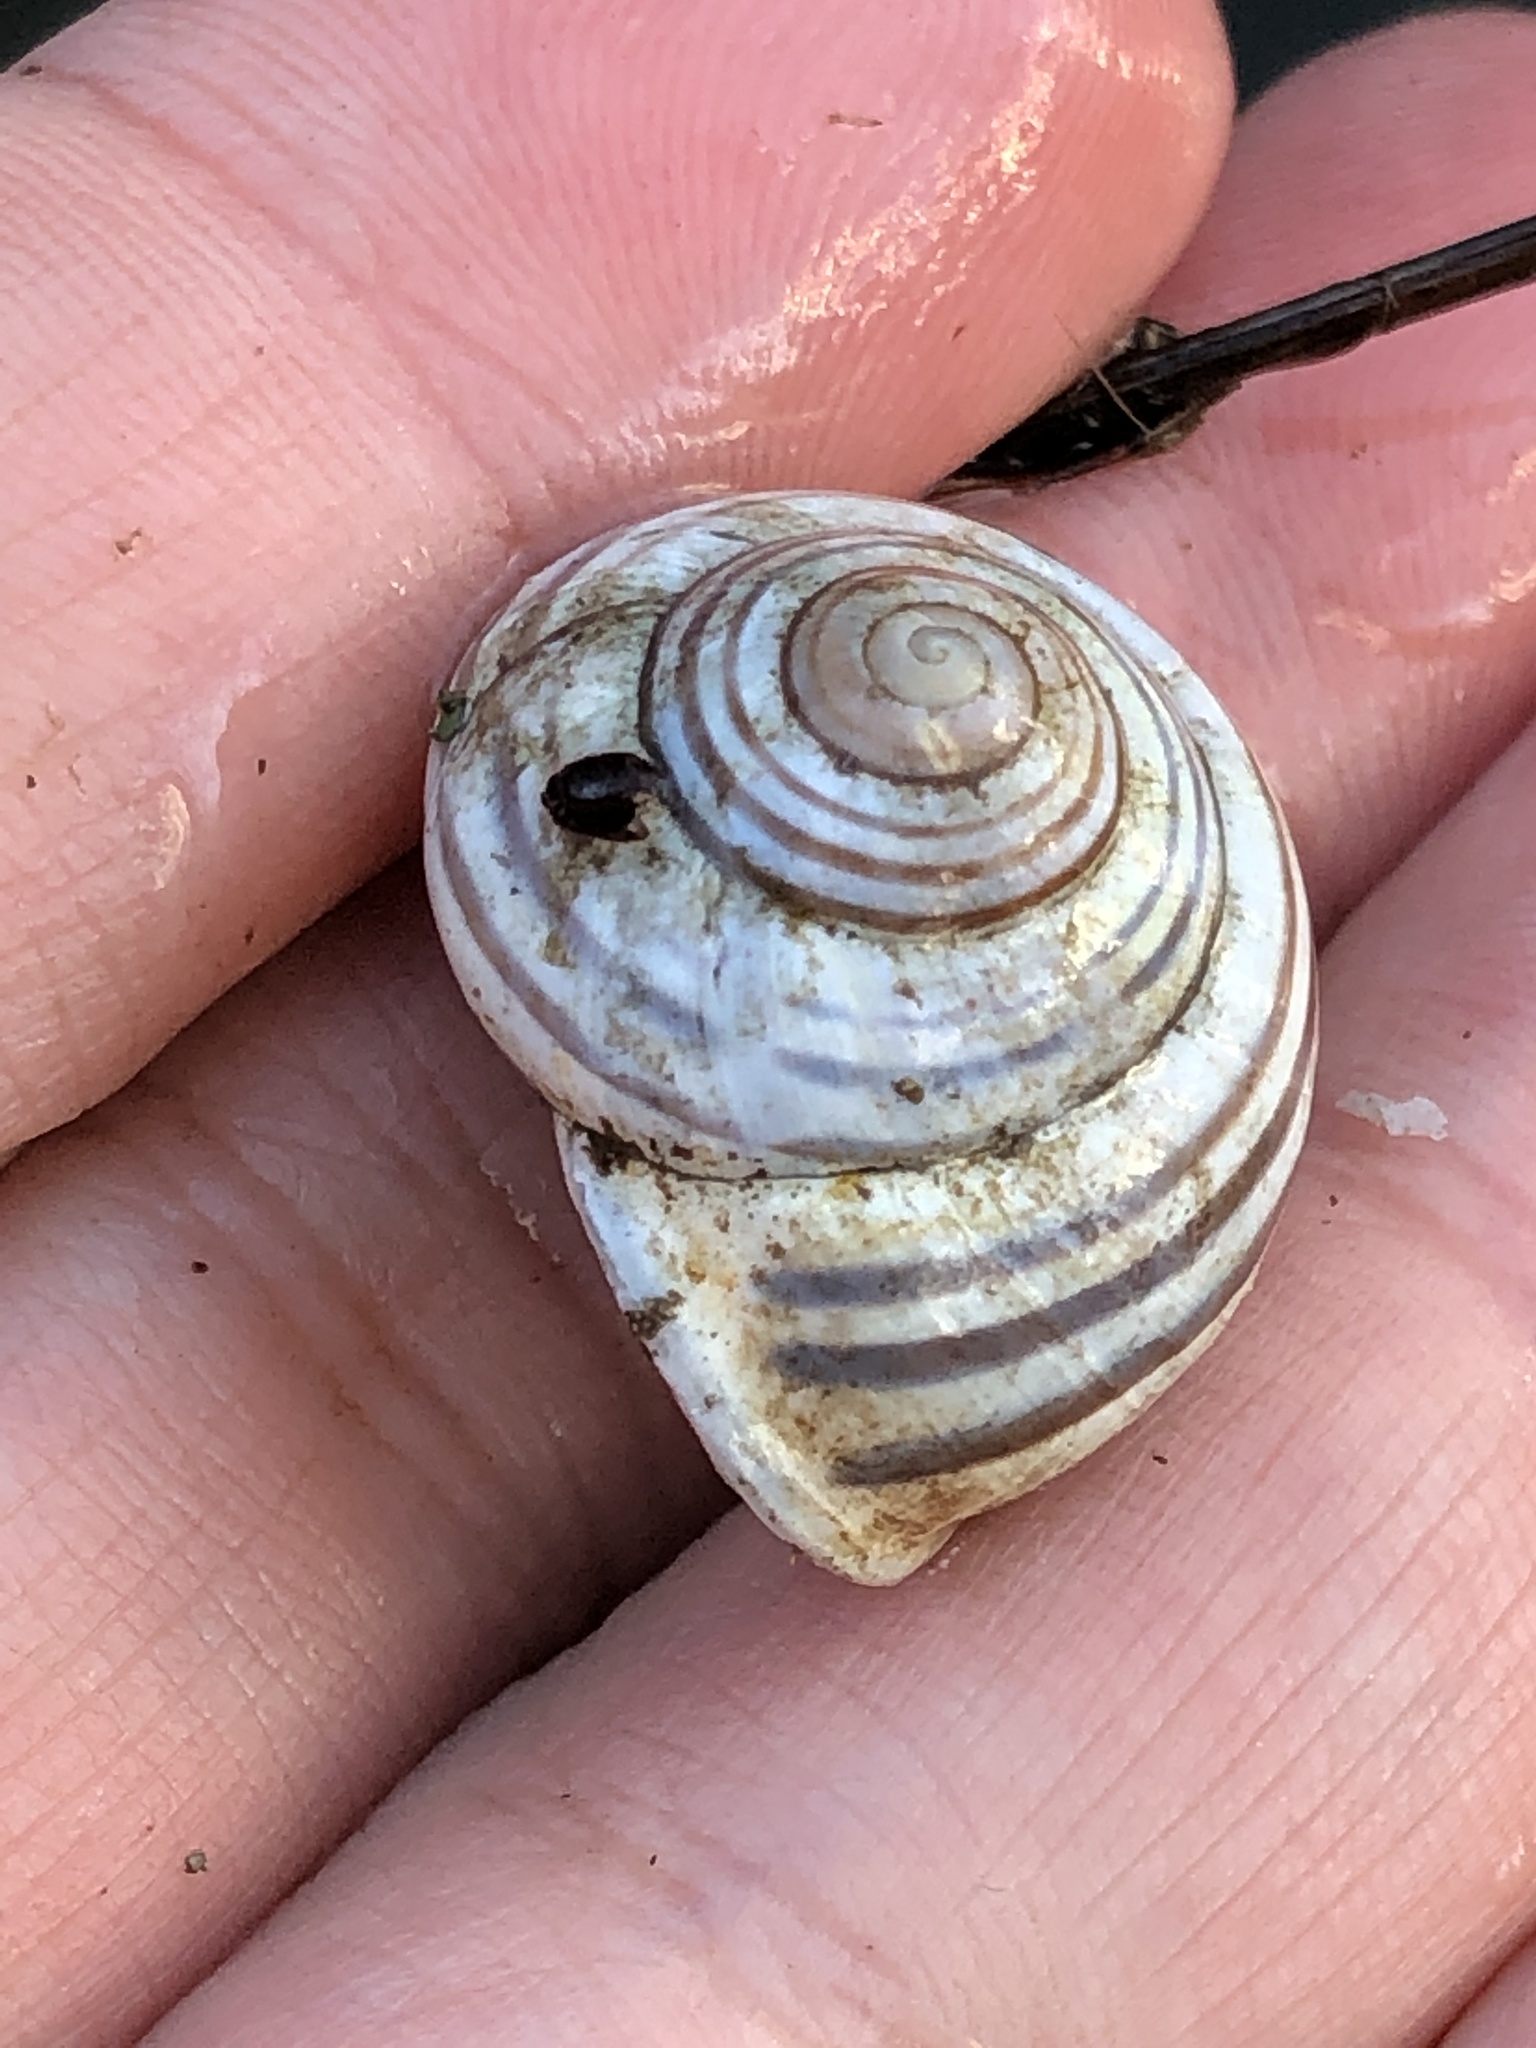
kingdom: Animalia
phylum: Mollusca
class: Gastropoda
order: Stylommatophora
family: Helicidae
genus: Cepaea
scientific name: Cepaea nemoralis
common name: Grovesnail
